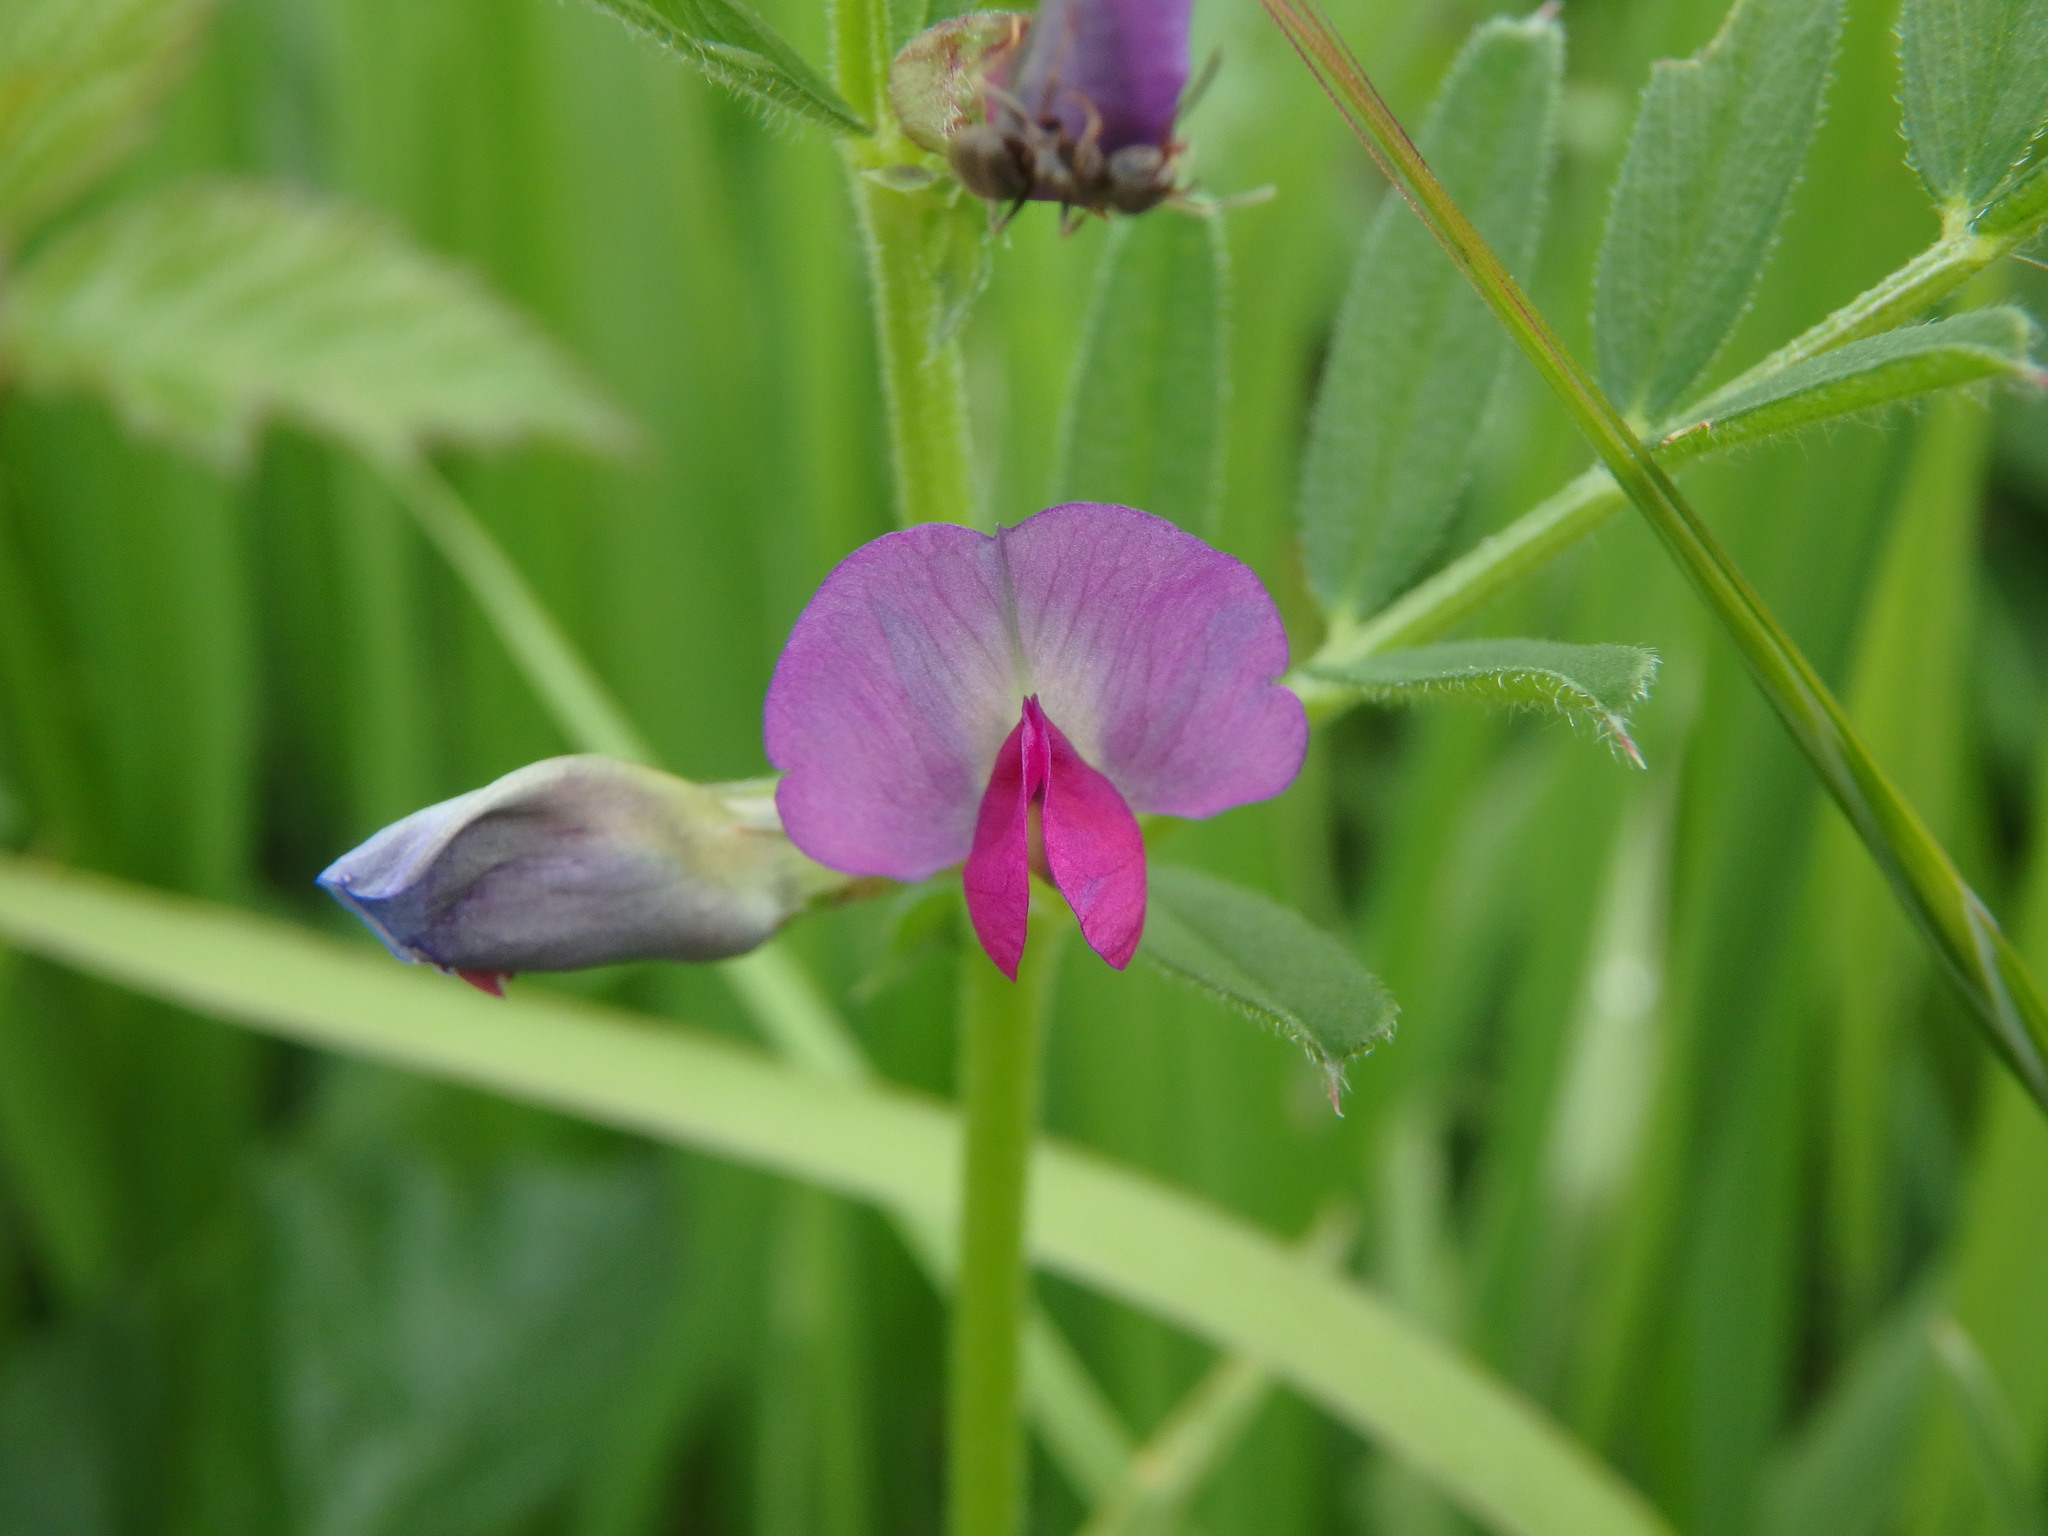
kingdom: Plantae
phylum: Tracheophyta
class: Magnoliopsida
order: Fabales
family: Fabaceae
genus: Vicia
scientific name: Vicia sativa
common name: Garden vetch
